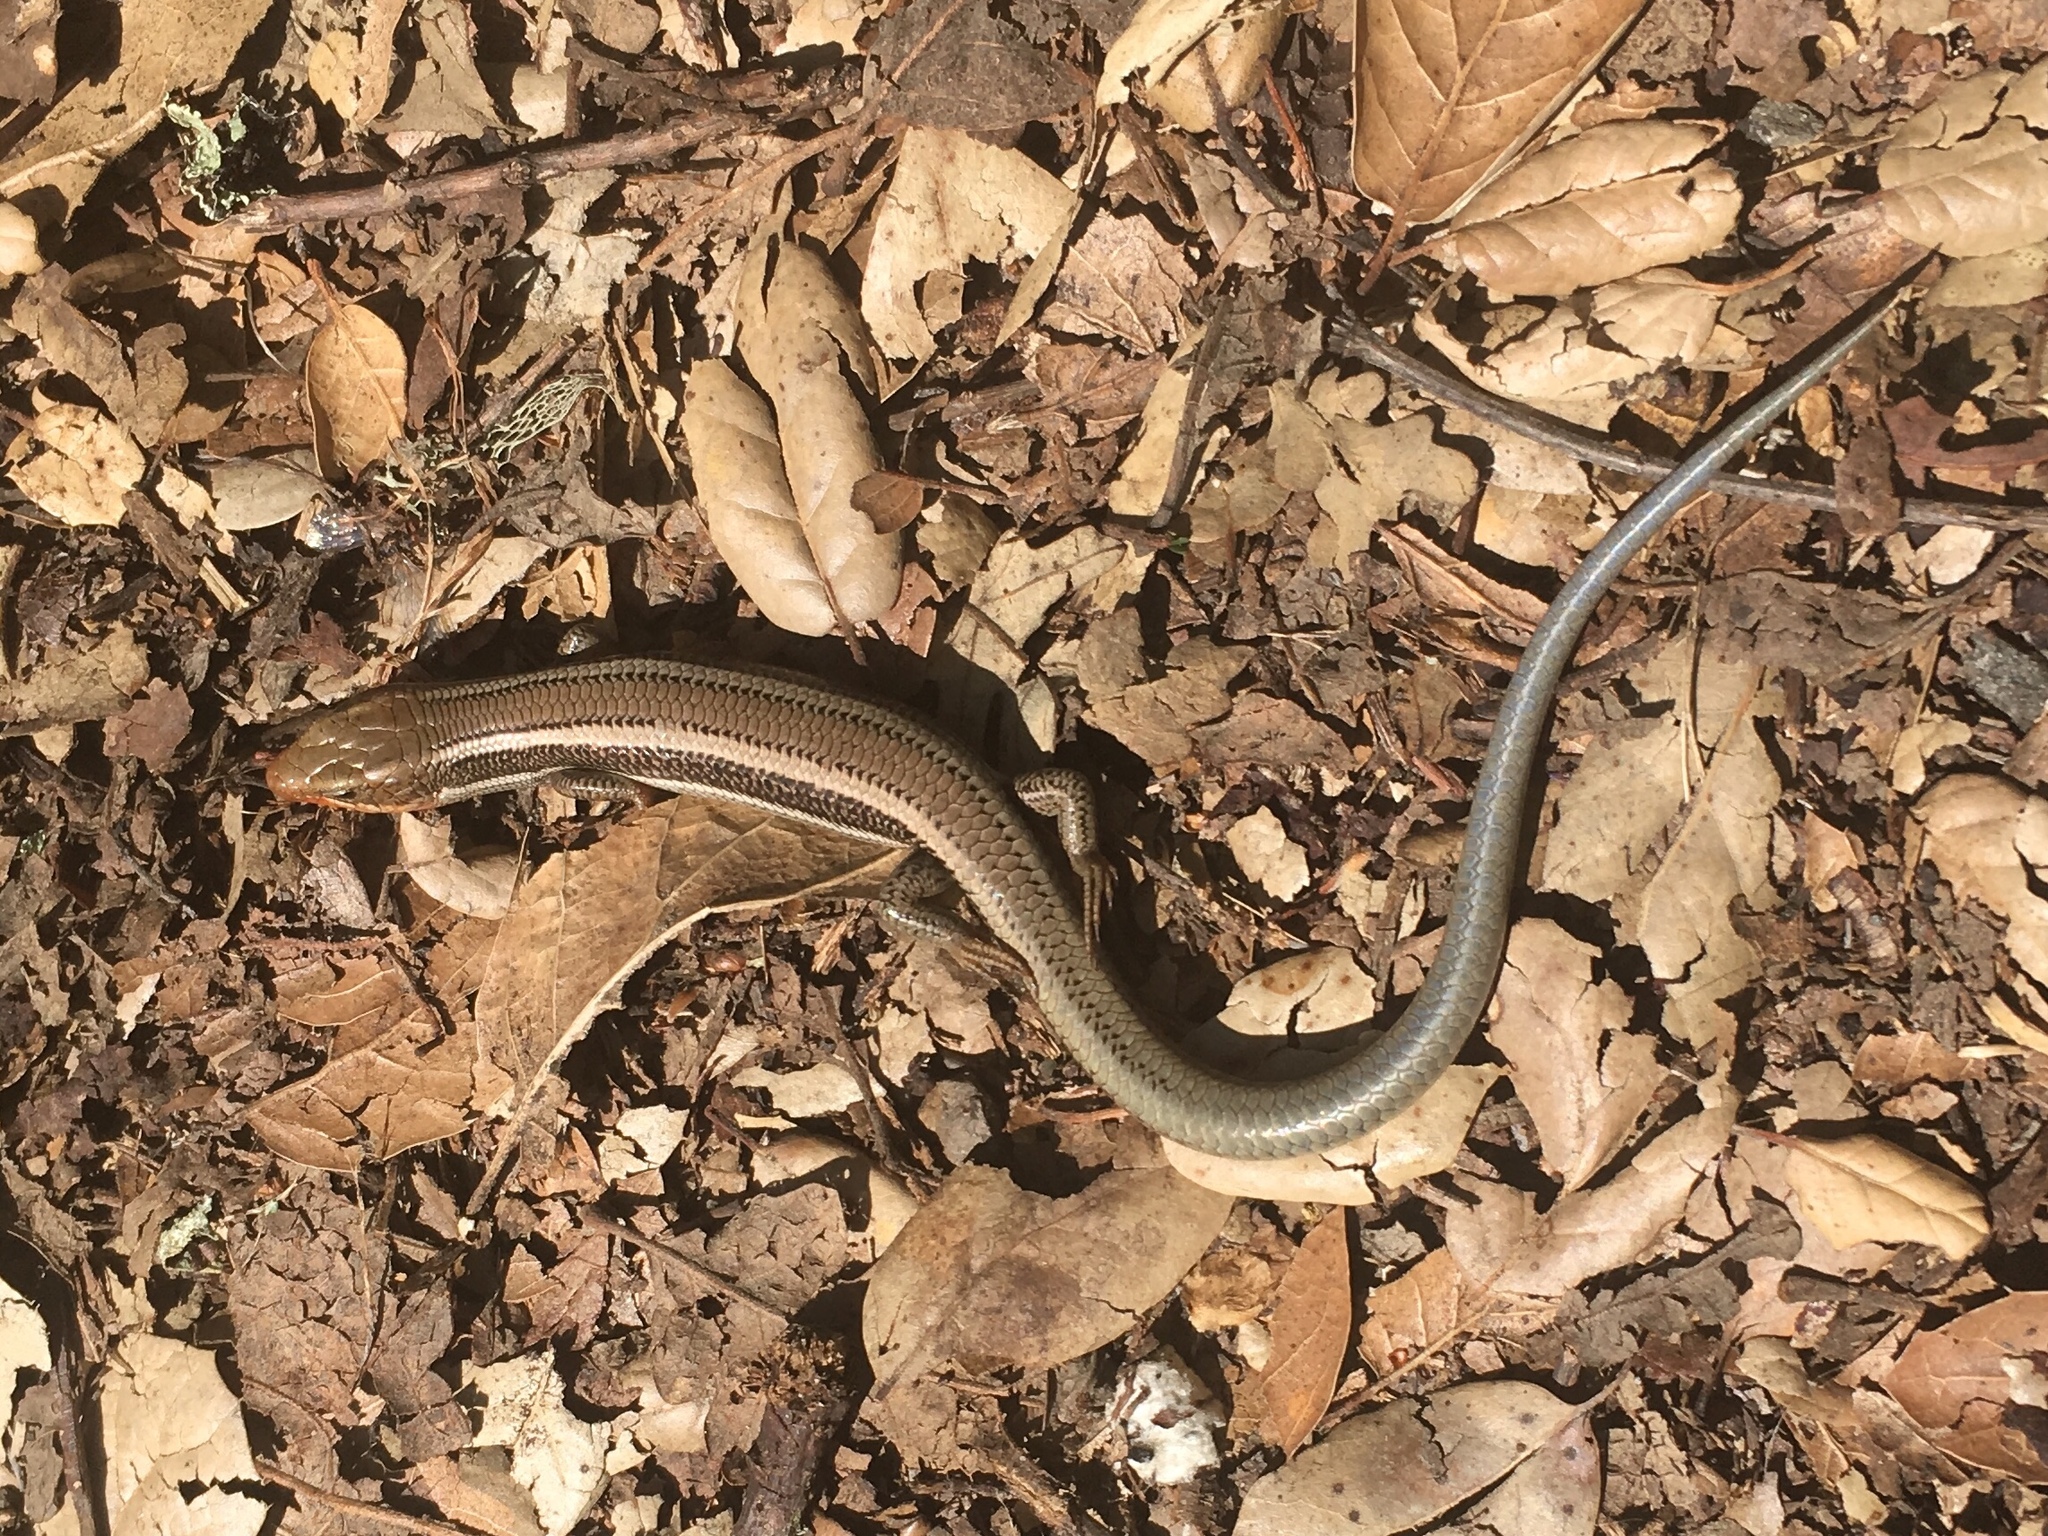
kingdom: Animalia
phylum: Chordata
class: Squamata
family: Scincidae
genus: Plestiodon
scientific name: Plestiodon skiltonianus
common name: Coronado island skink [interparietalis]
